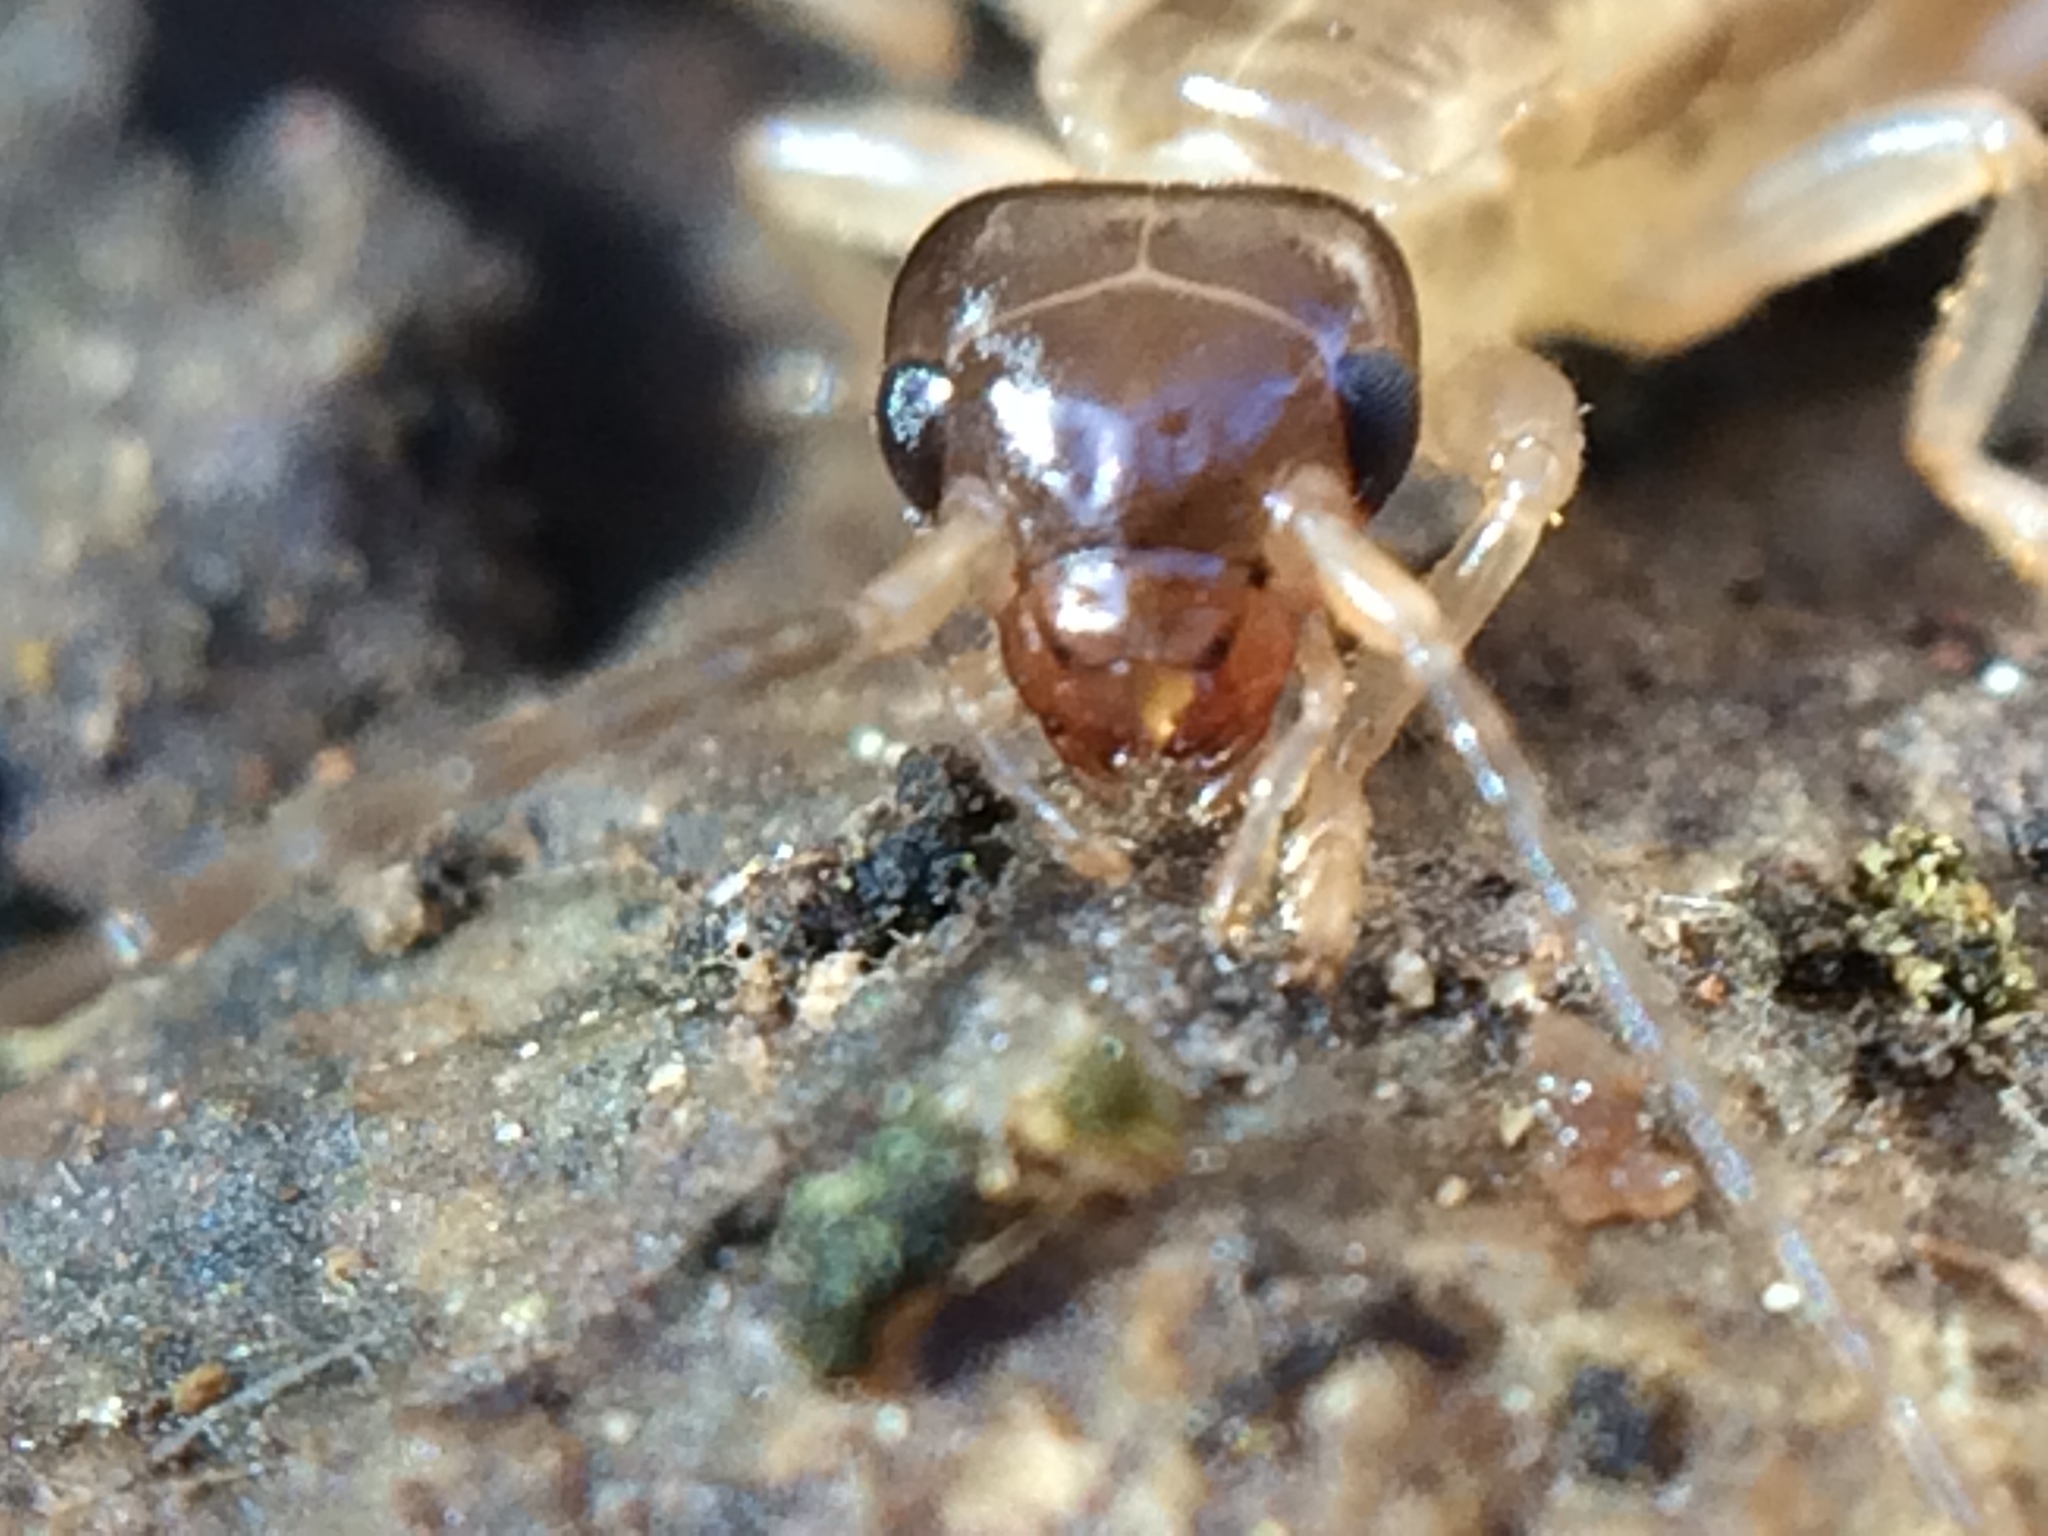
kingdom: Animalia
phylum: Arthropoda
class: Insecta
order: Dermaptera
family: Forficulidae
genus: Forficula
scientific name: Forficula
